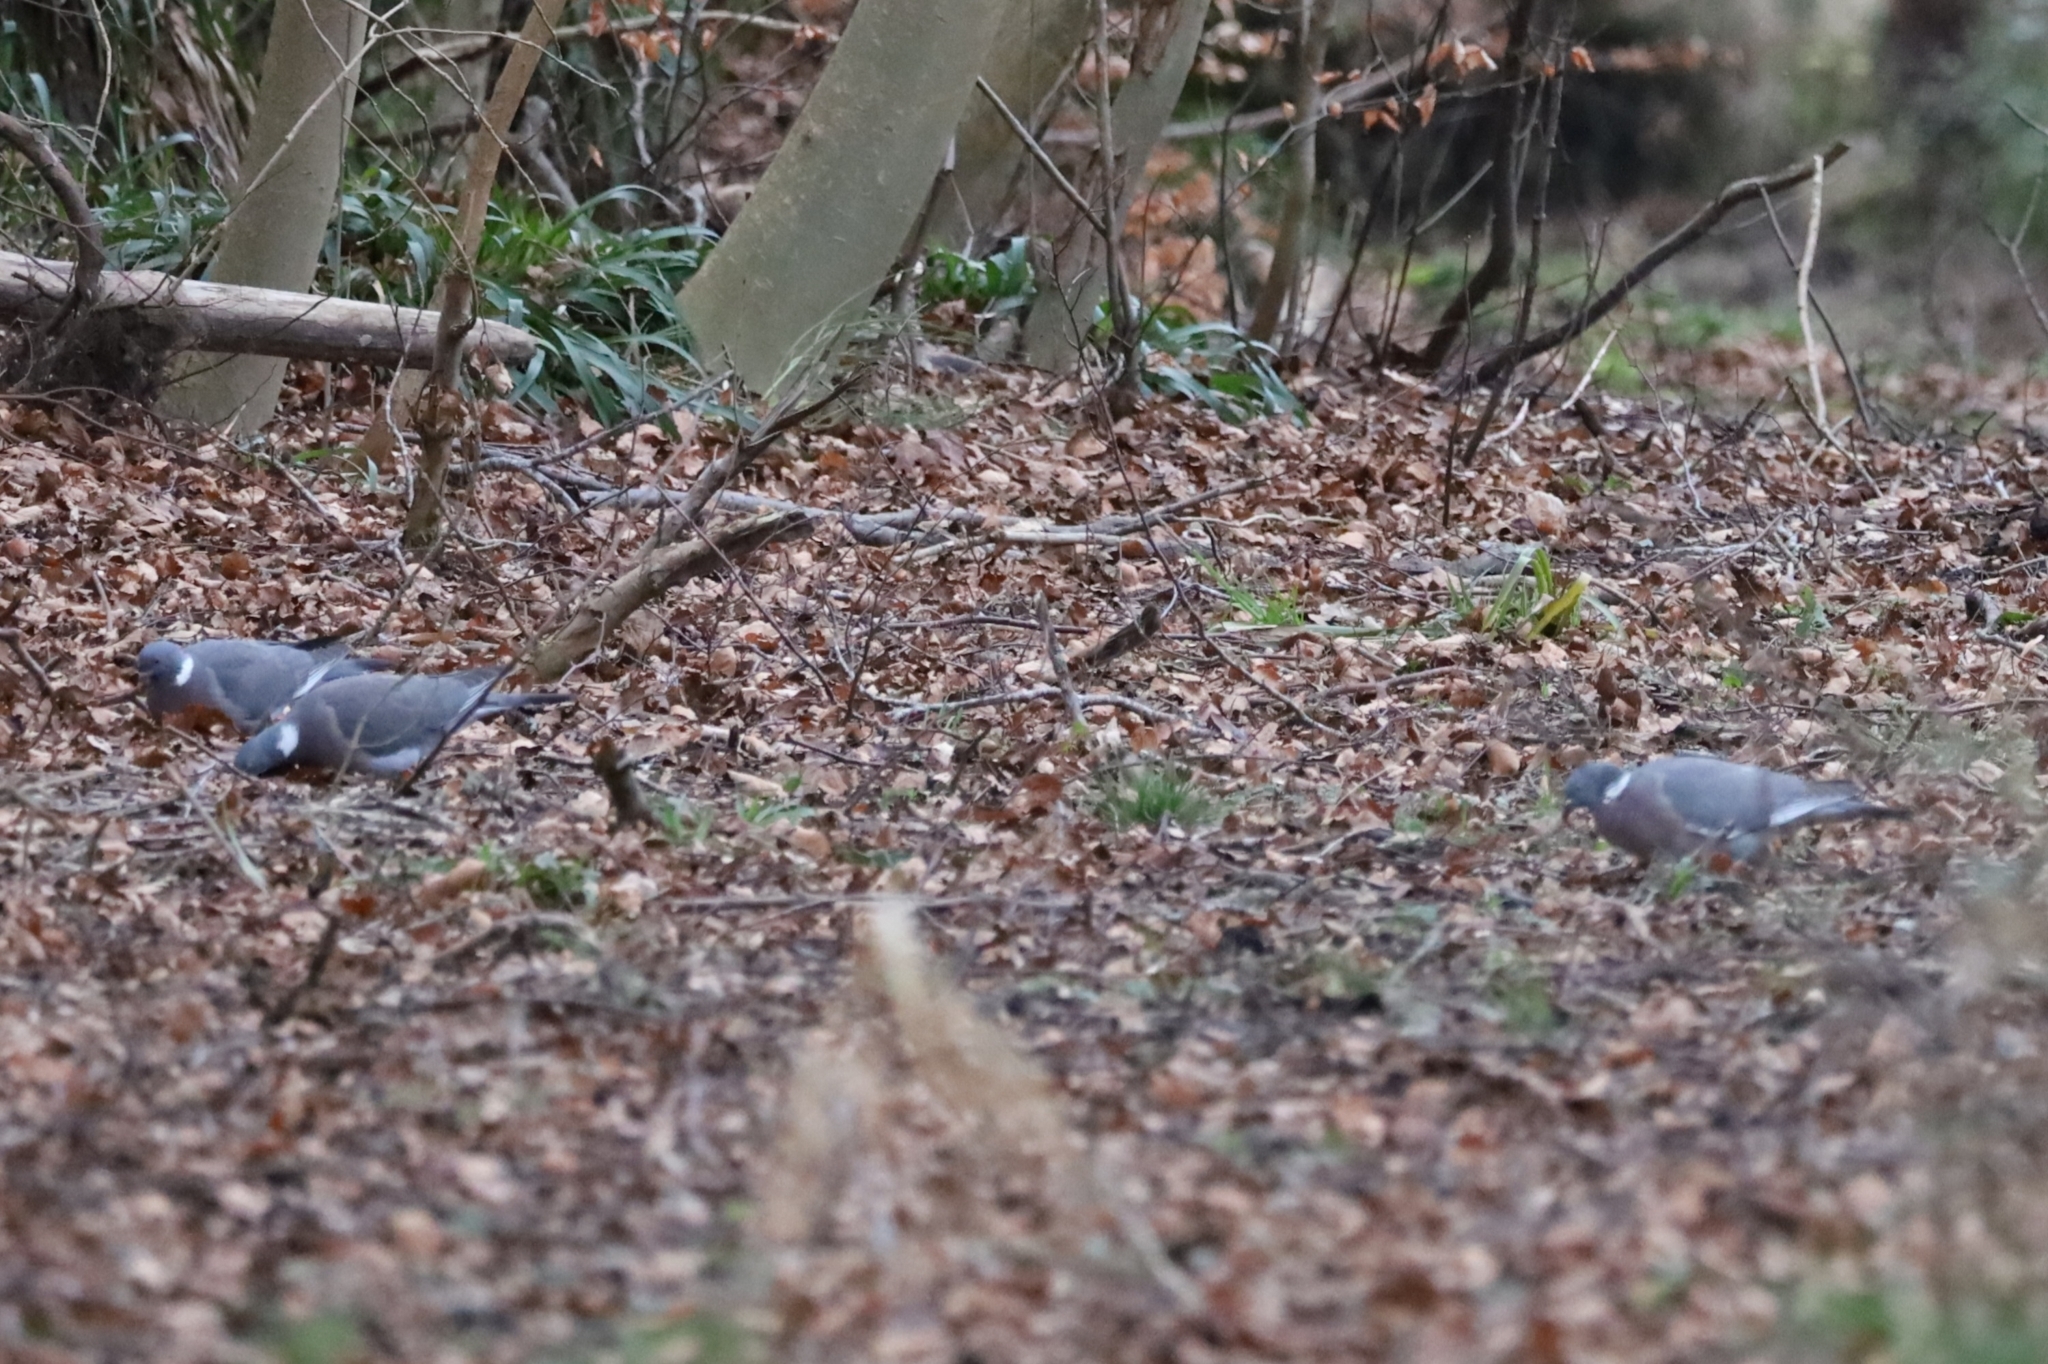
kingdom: Animalia
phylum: Chordata
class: Aves
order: Columbiformes
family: Columbidae
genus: Columba
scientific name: Columba palumbus
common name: Common wood pigeon
